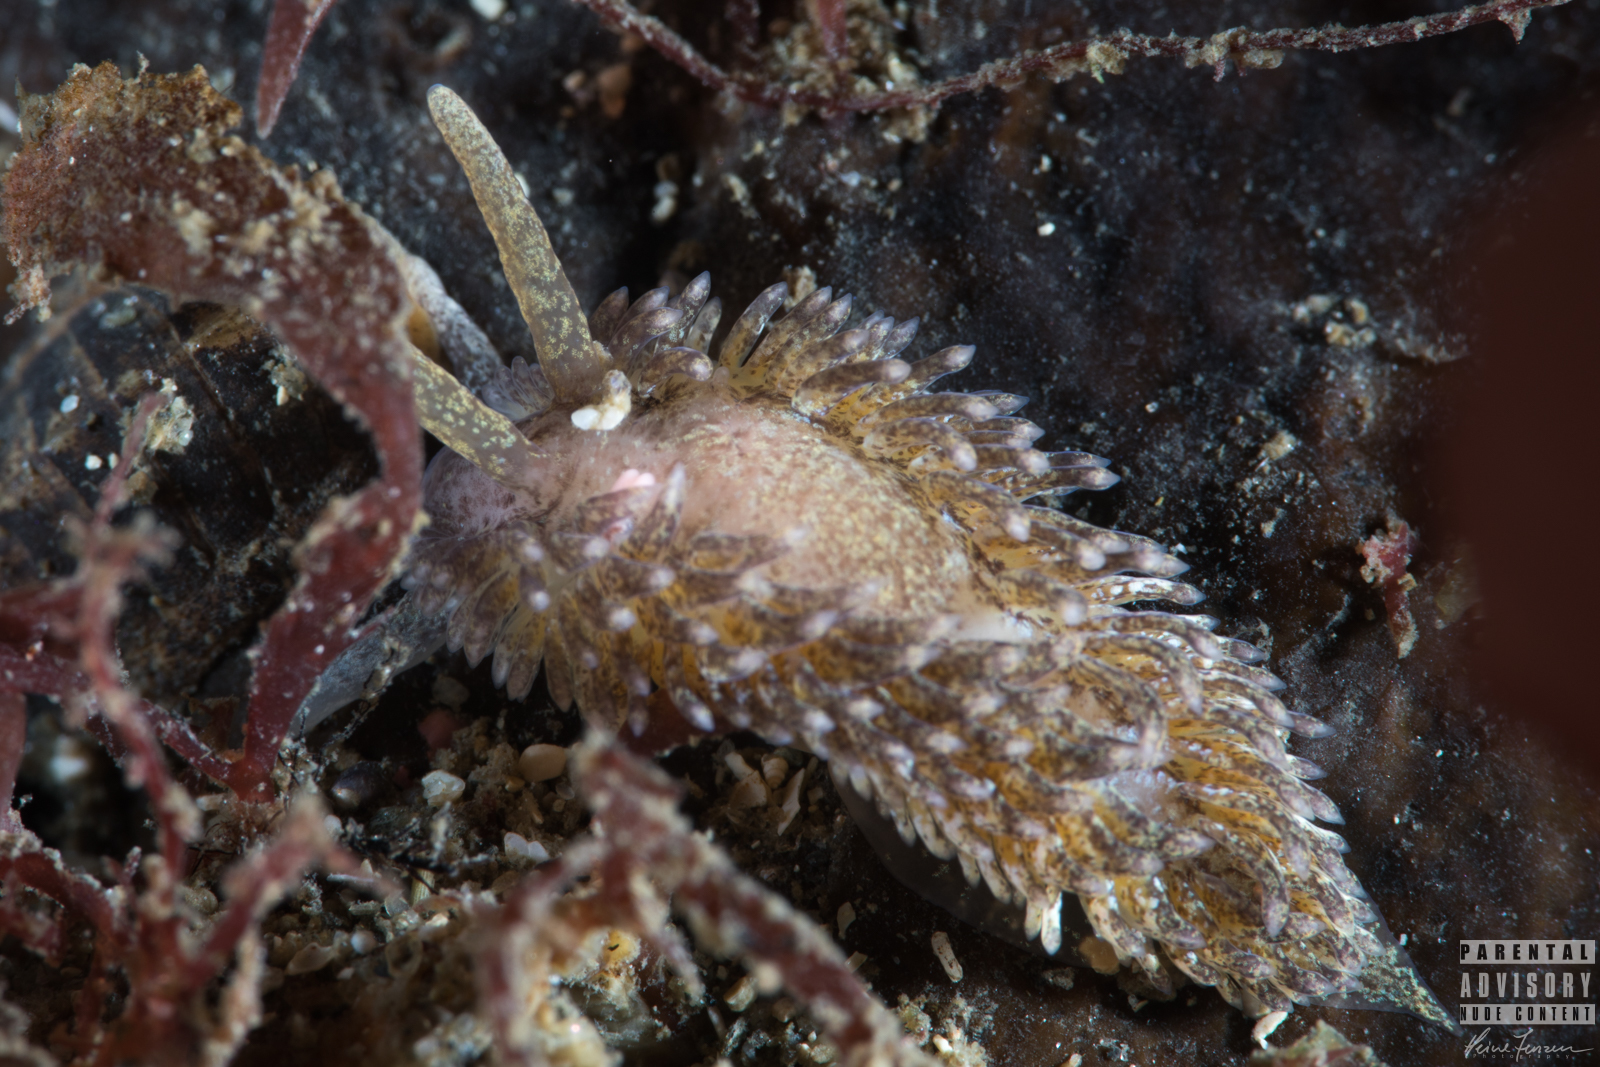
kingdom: Animalia
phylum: Mollusca
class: Gastropoda
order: Nudibranchia
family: Aeolidiidae
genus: Aeolidia
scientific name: Aeolidia papillosa
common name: Common grey sea slug
